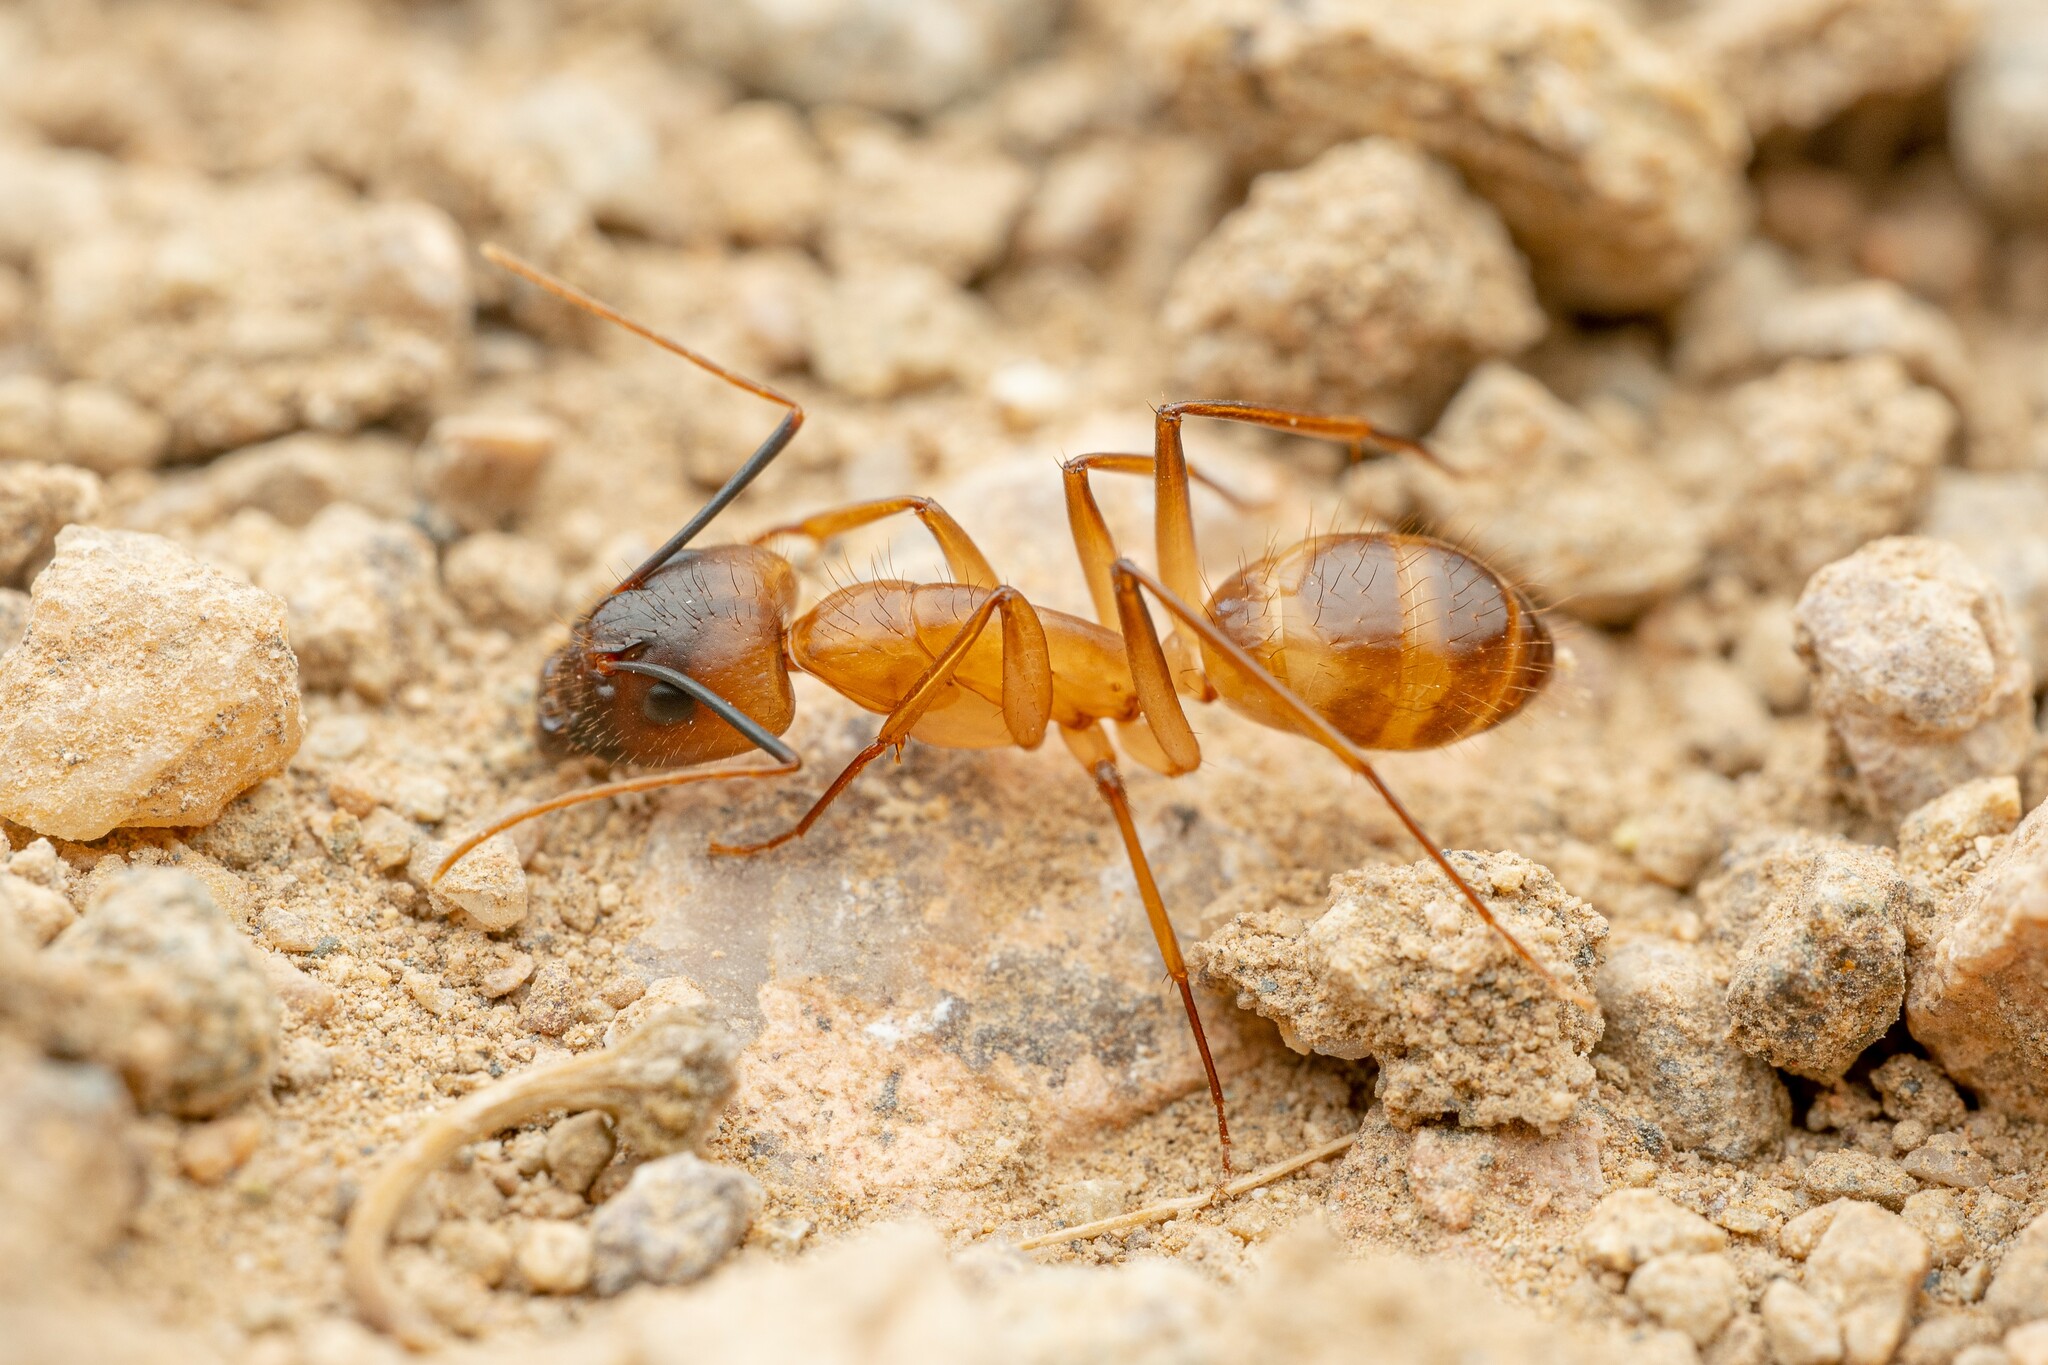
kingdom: Animalia
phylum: Arthropoda
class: Insecta
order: Hymenoptera
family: Formicidae
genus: Camponotus
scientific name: Camponotus festinatus
